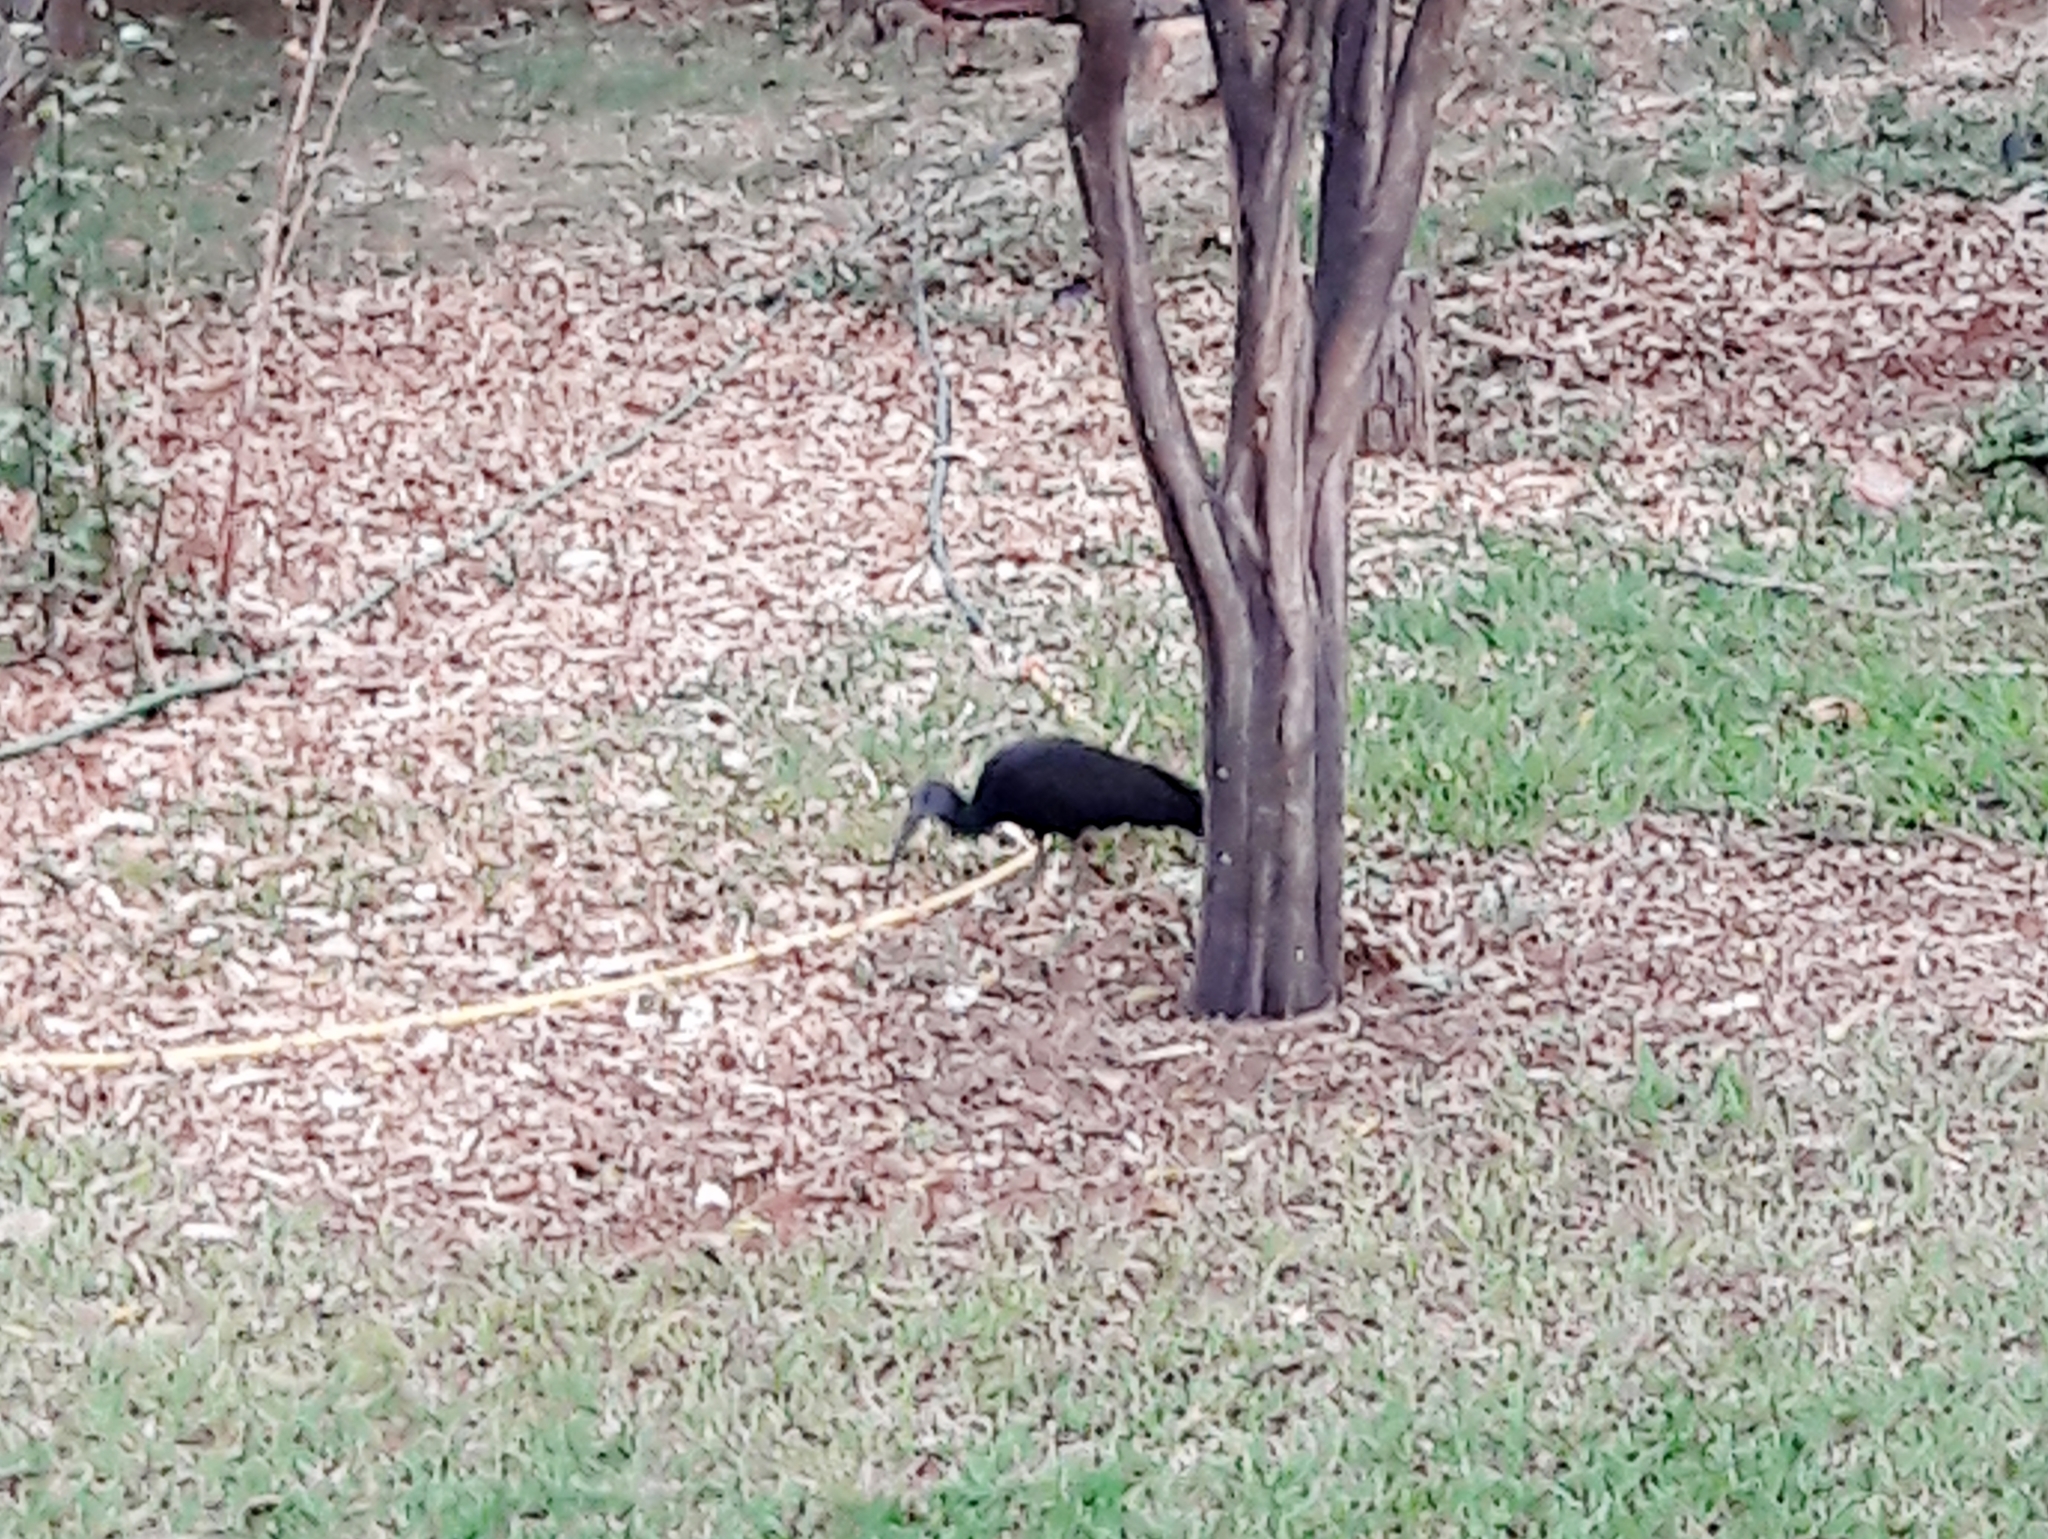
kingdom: Animalia
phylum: Chordata
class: Aves
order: Pelecaniformes
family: Threskiornithidae
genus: Mesembrinibis
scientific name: Mesembrinibis cayennensis
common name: Green ibis
